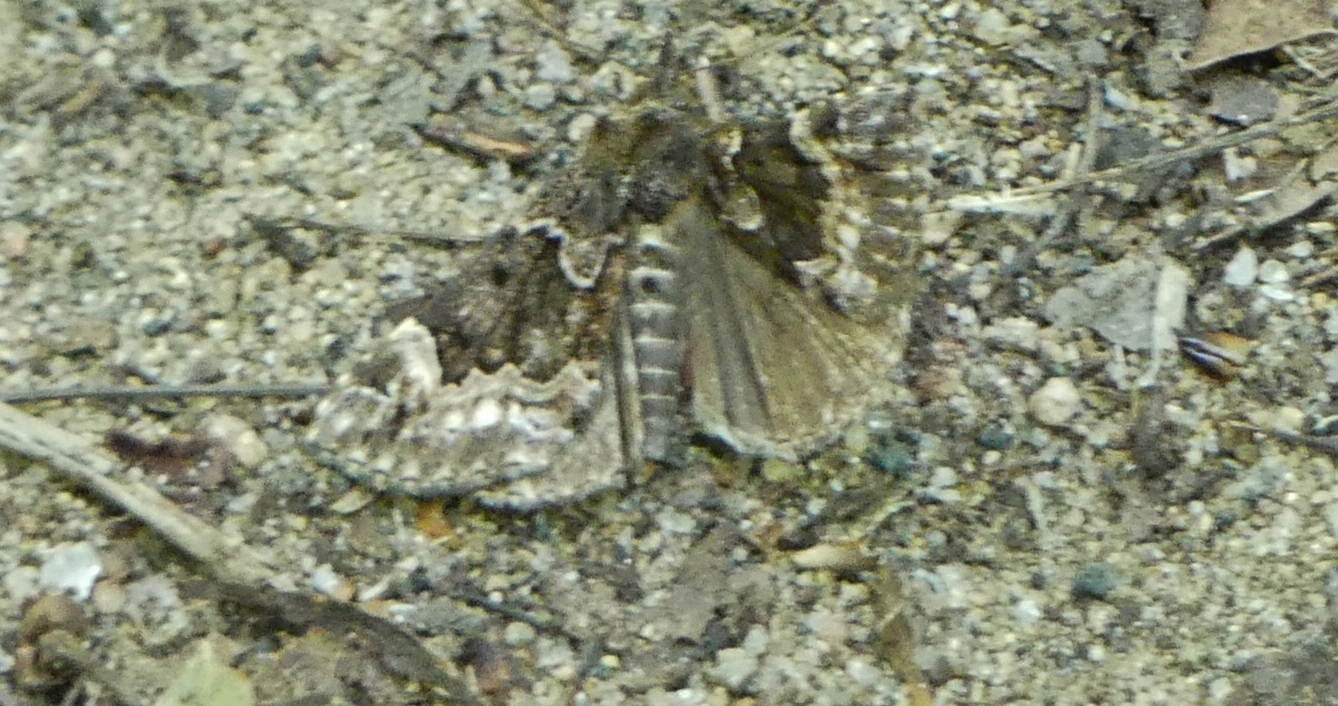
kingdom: Animalia
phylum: Arthropoda
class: Insecta
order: Lepidoptera
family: Erebidae
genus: Hypena
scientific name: Hypena palparia
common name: Mottled bomolocha moth
